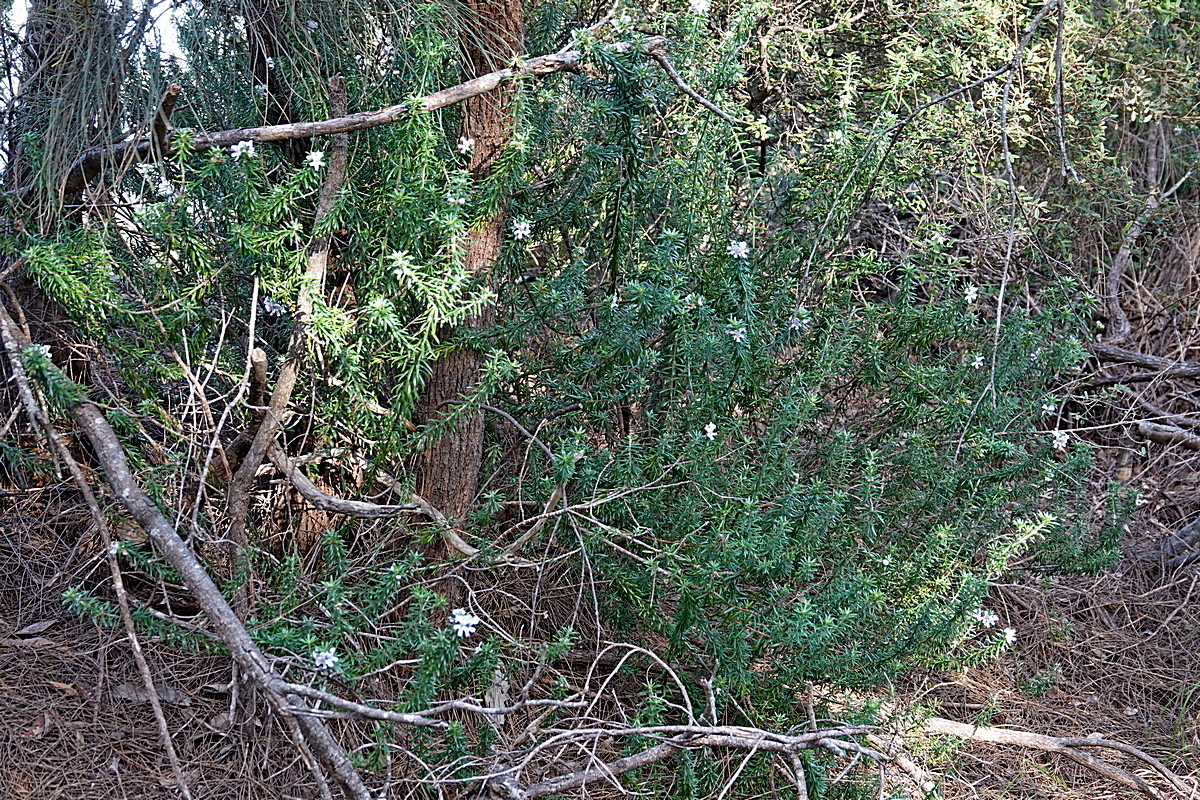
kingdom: Plantae
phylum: Tracheophyta
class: Magnoliopsida
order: Lamiales
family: Lamiaceae
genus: Westringia
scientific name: Westringia fruticosa
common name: Coastal-rosemary
